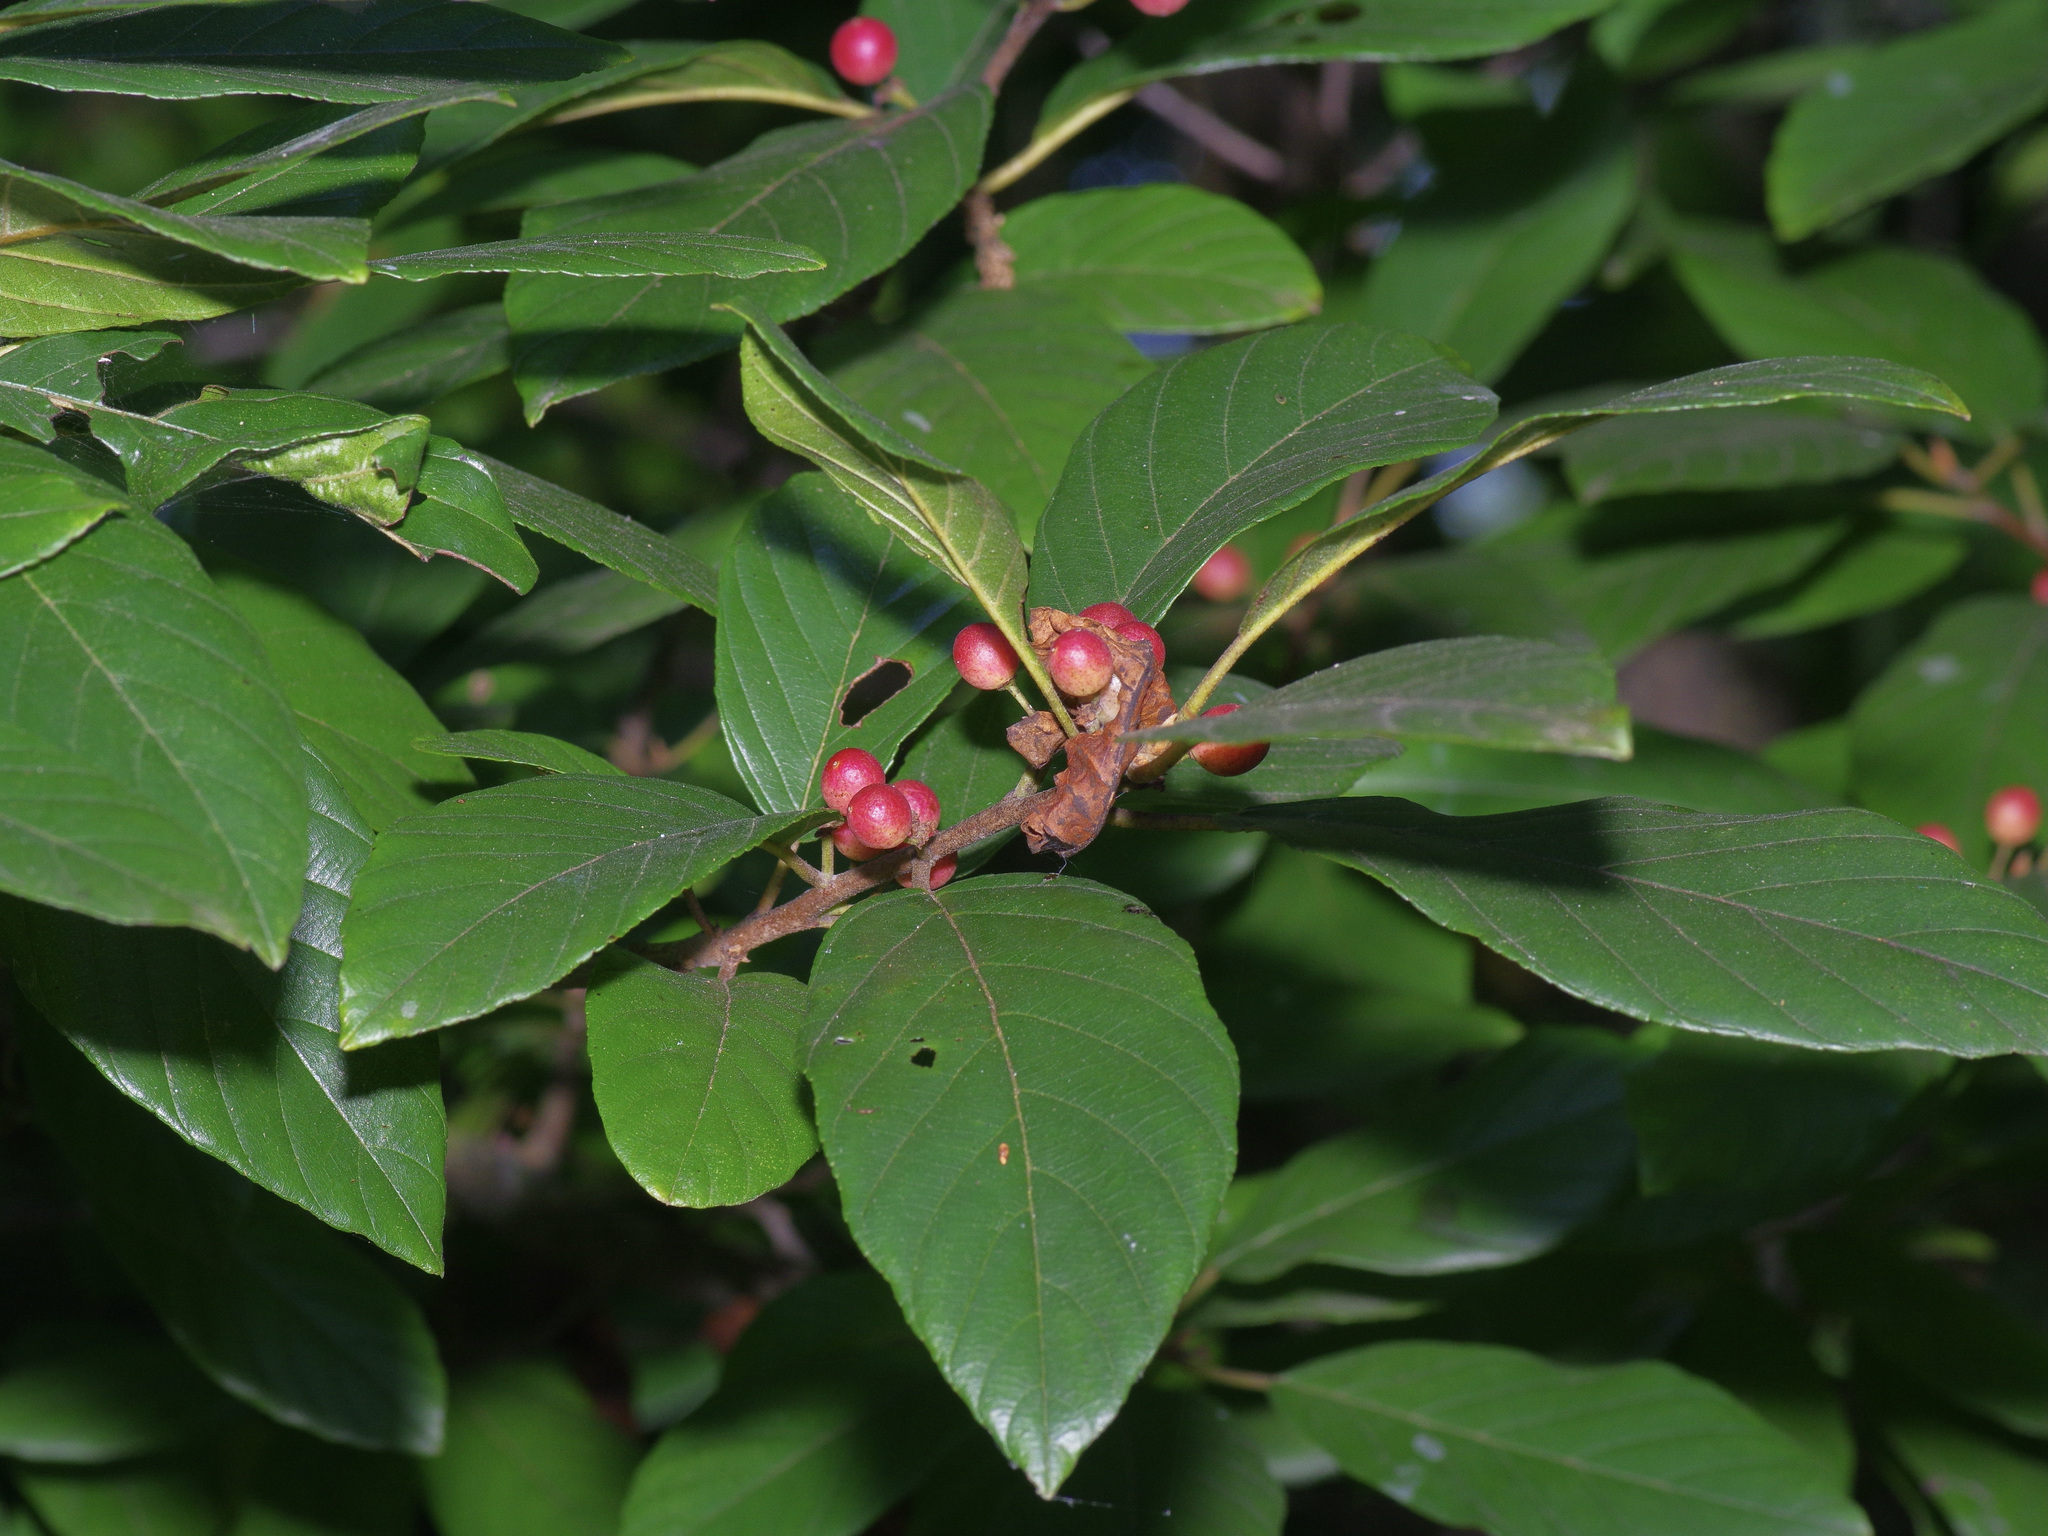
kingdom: Plantae
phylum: Tracheophyta
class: Magnoliopsida
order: Rosales
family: Rhamnaceae
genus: Frangula
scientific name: Frangula caroliniana
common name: Carolina buckthorn
